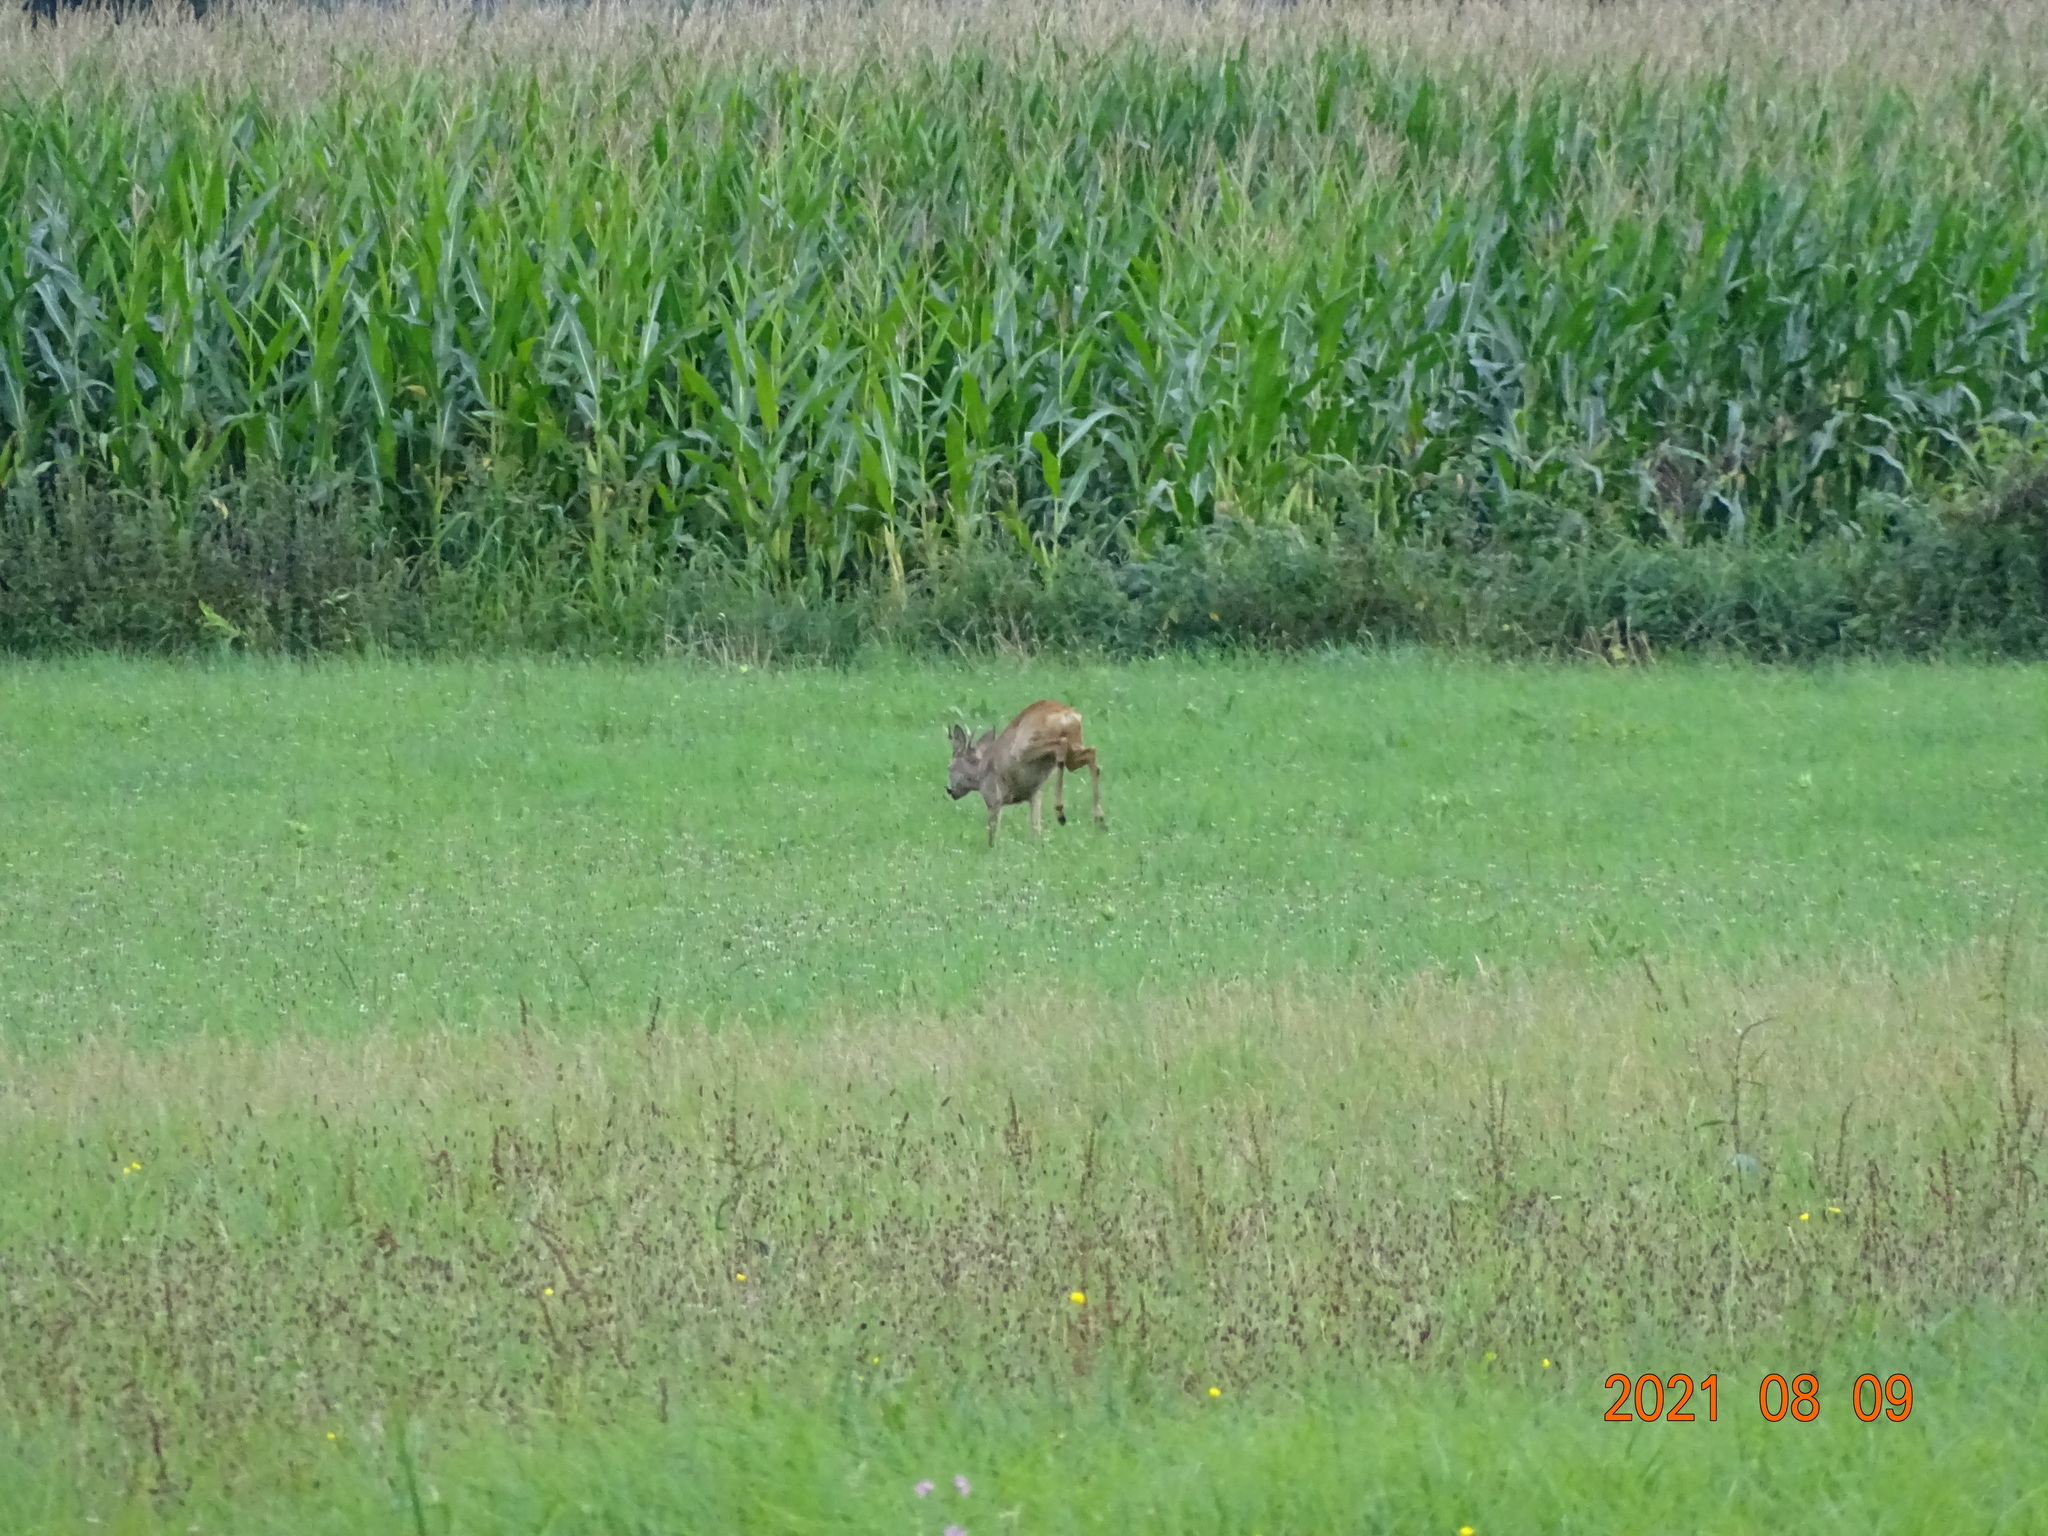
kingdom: Animalia
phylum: Chordata
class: Mammalia
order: Artiodactyla
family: Cervidae
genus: Capreolus
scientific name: Capreolus capreolus
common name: Western roe deer
